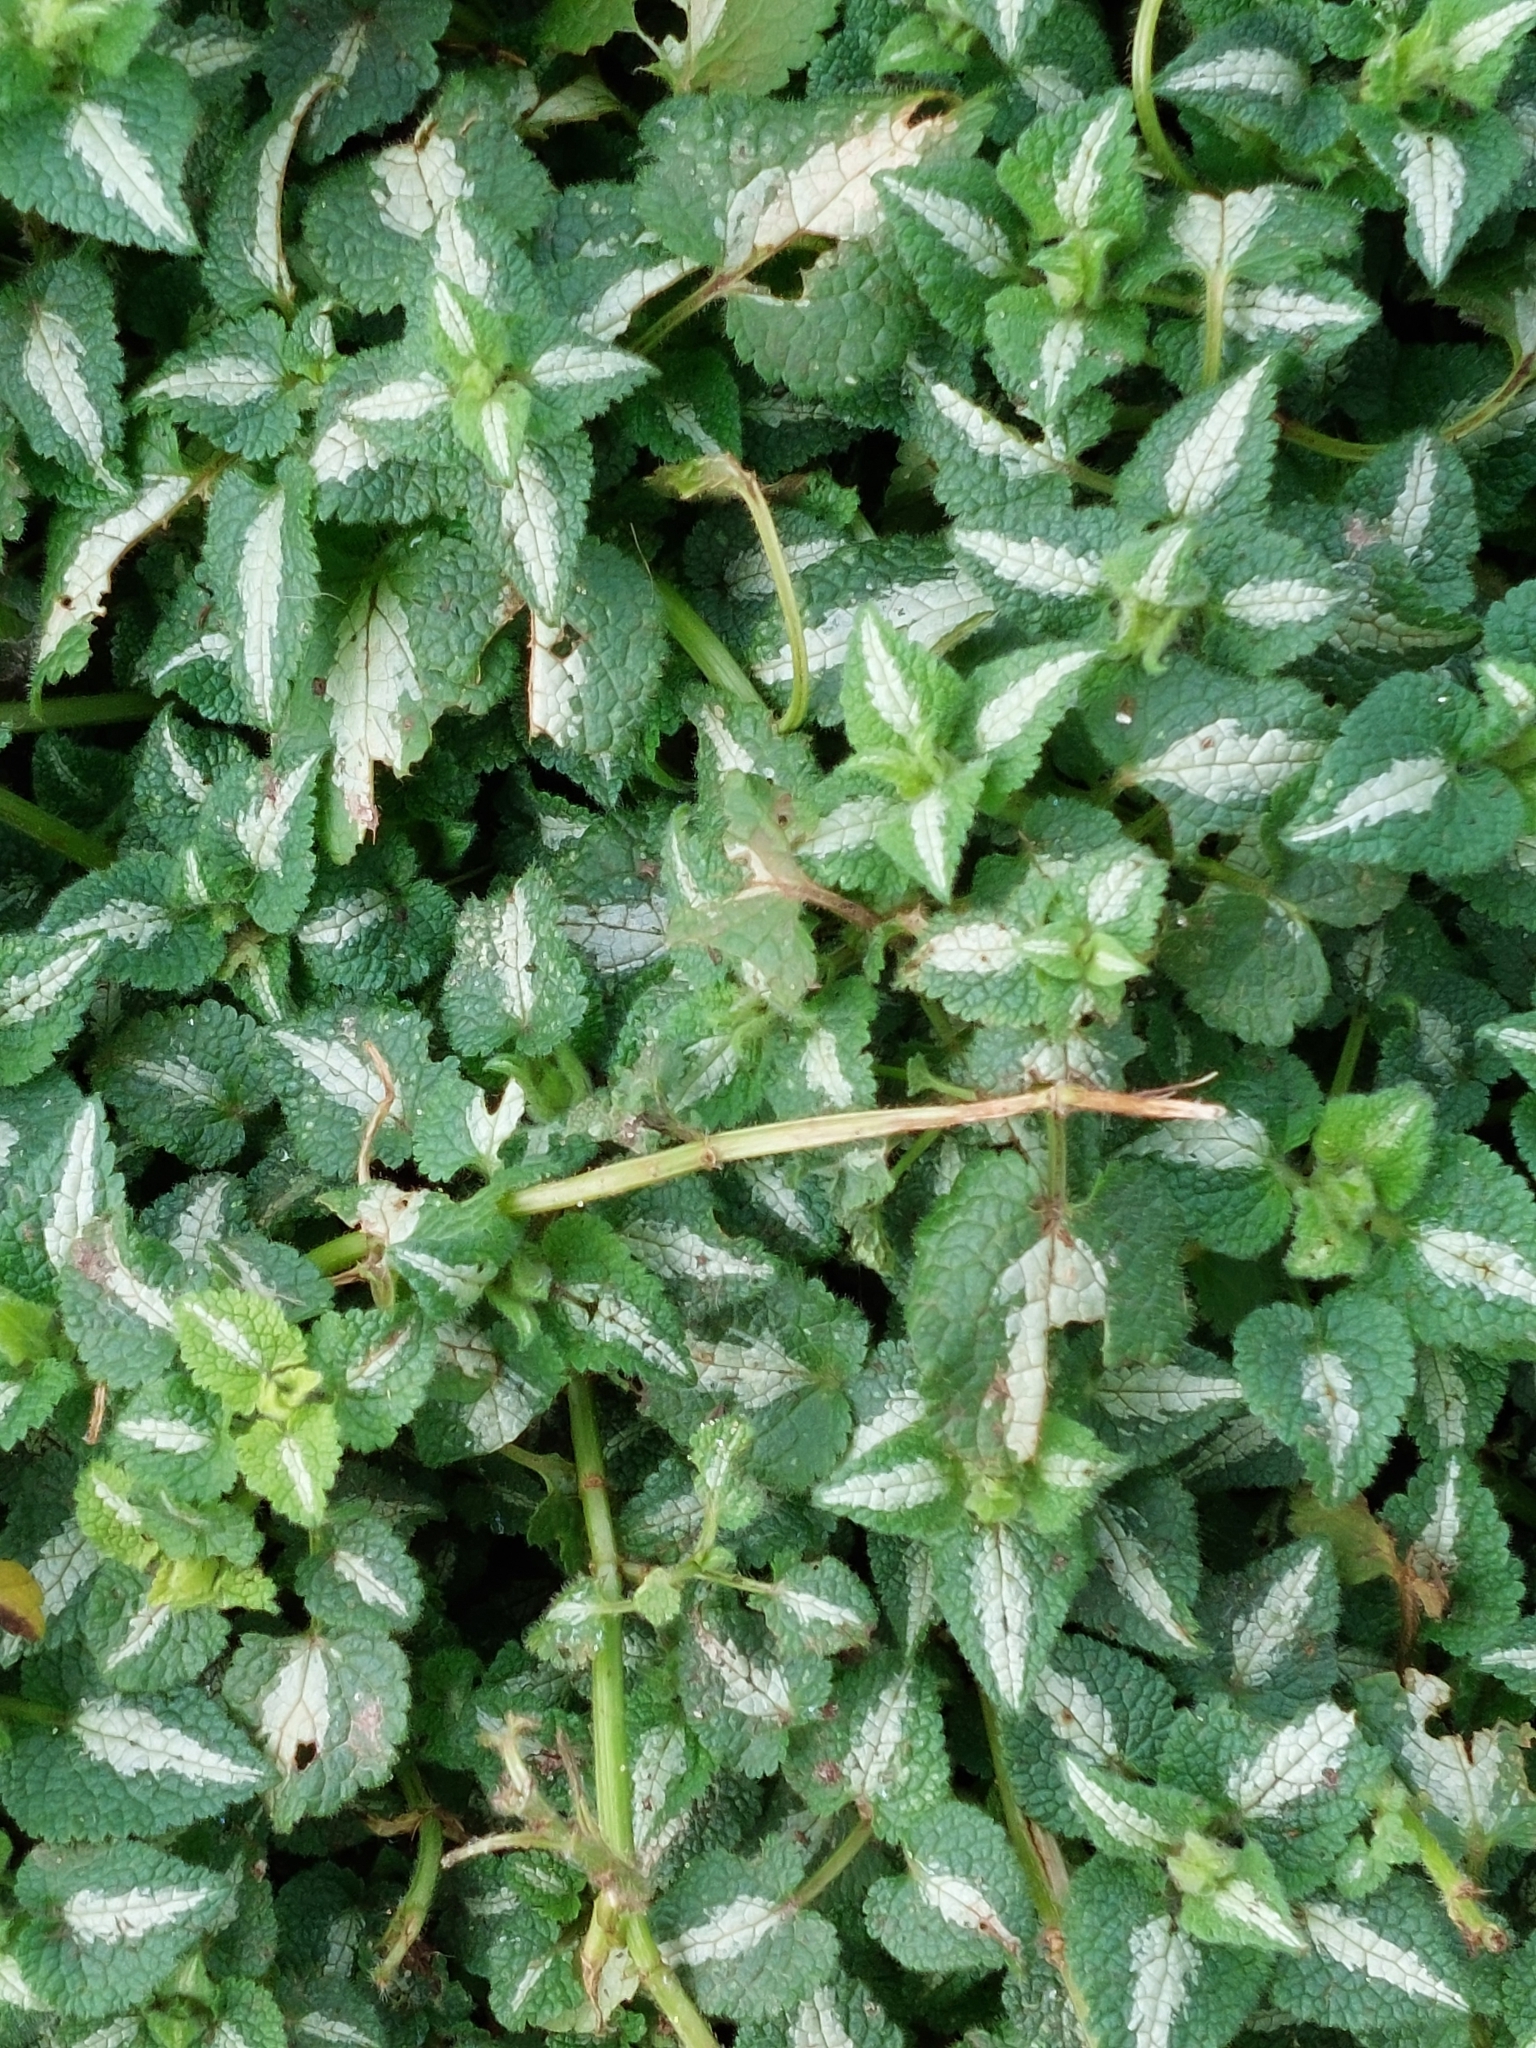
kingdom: Plantae
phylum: Tracheophyta
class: Magnoliopsida
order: Lamiales
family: Lamiaceae
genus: Lamium
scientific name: Lamium maculatum
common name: Spotted dead-nettle
